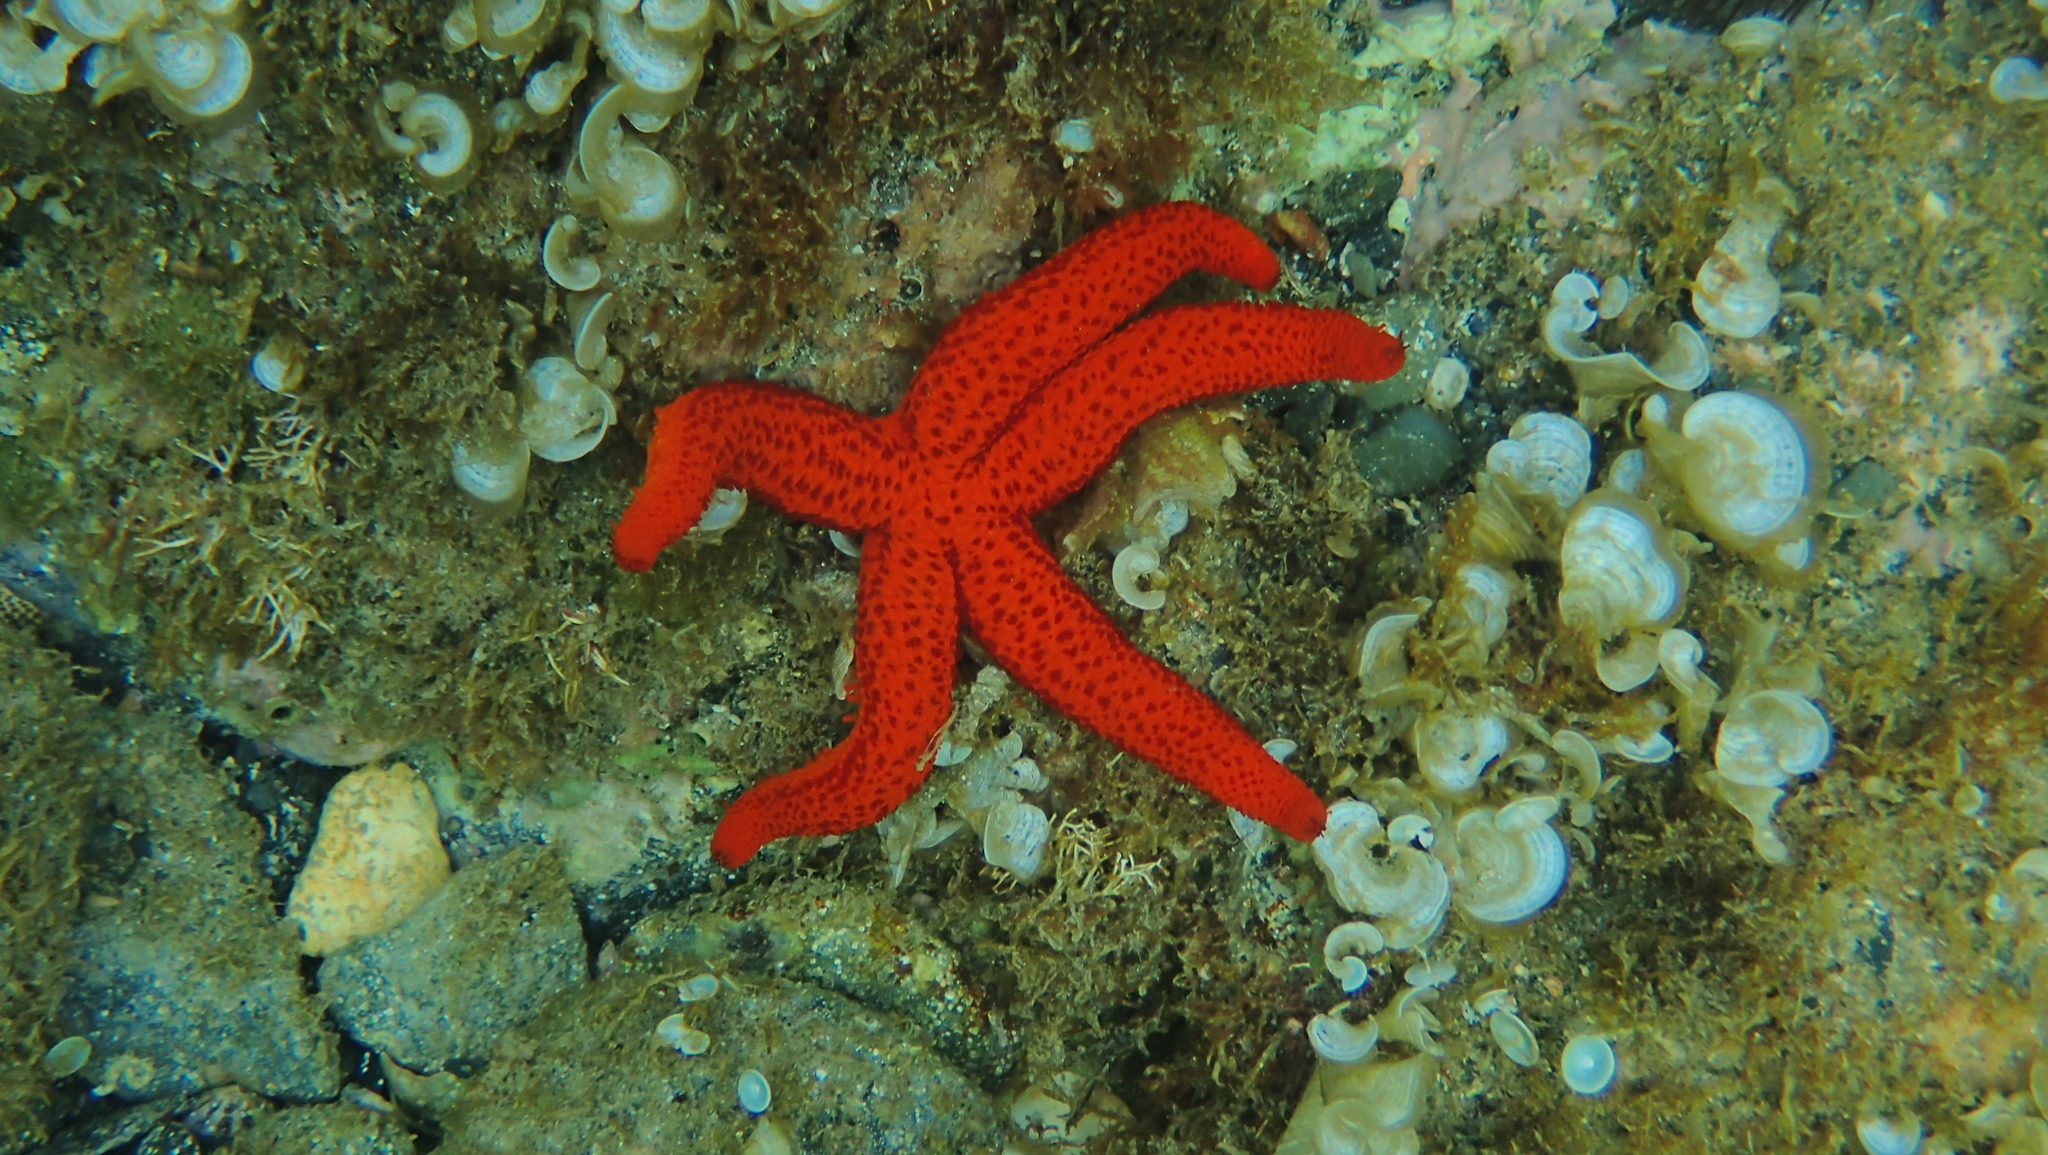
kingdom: Animalia
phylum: Echinodermata
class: Asteroidea
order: Spinulosida
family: Echinasteridae
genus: Echinaster
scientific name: Echinaster sepositus
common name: Red starfish
